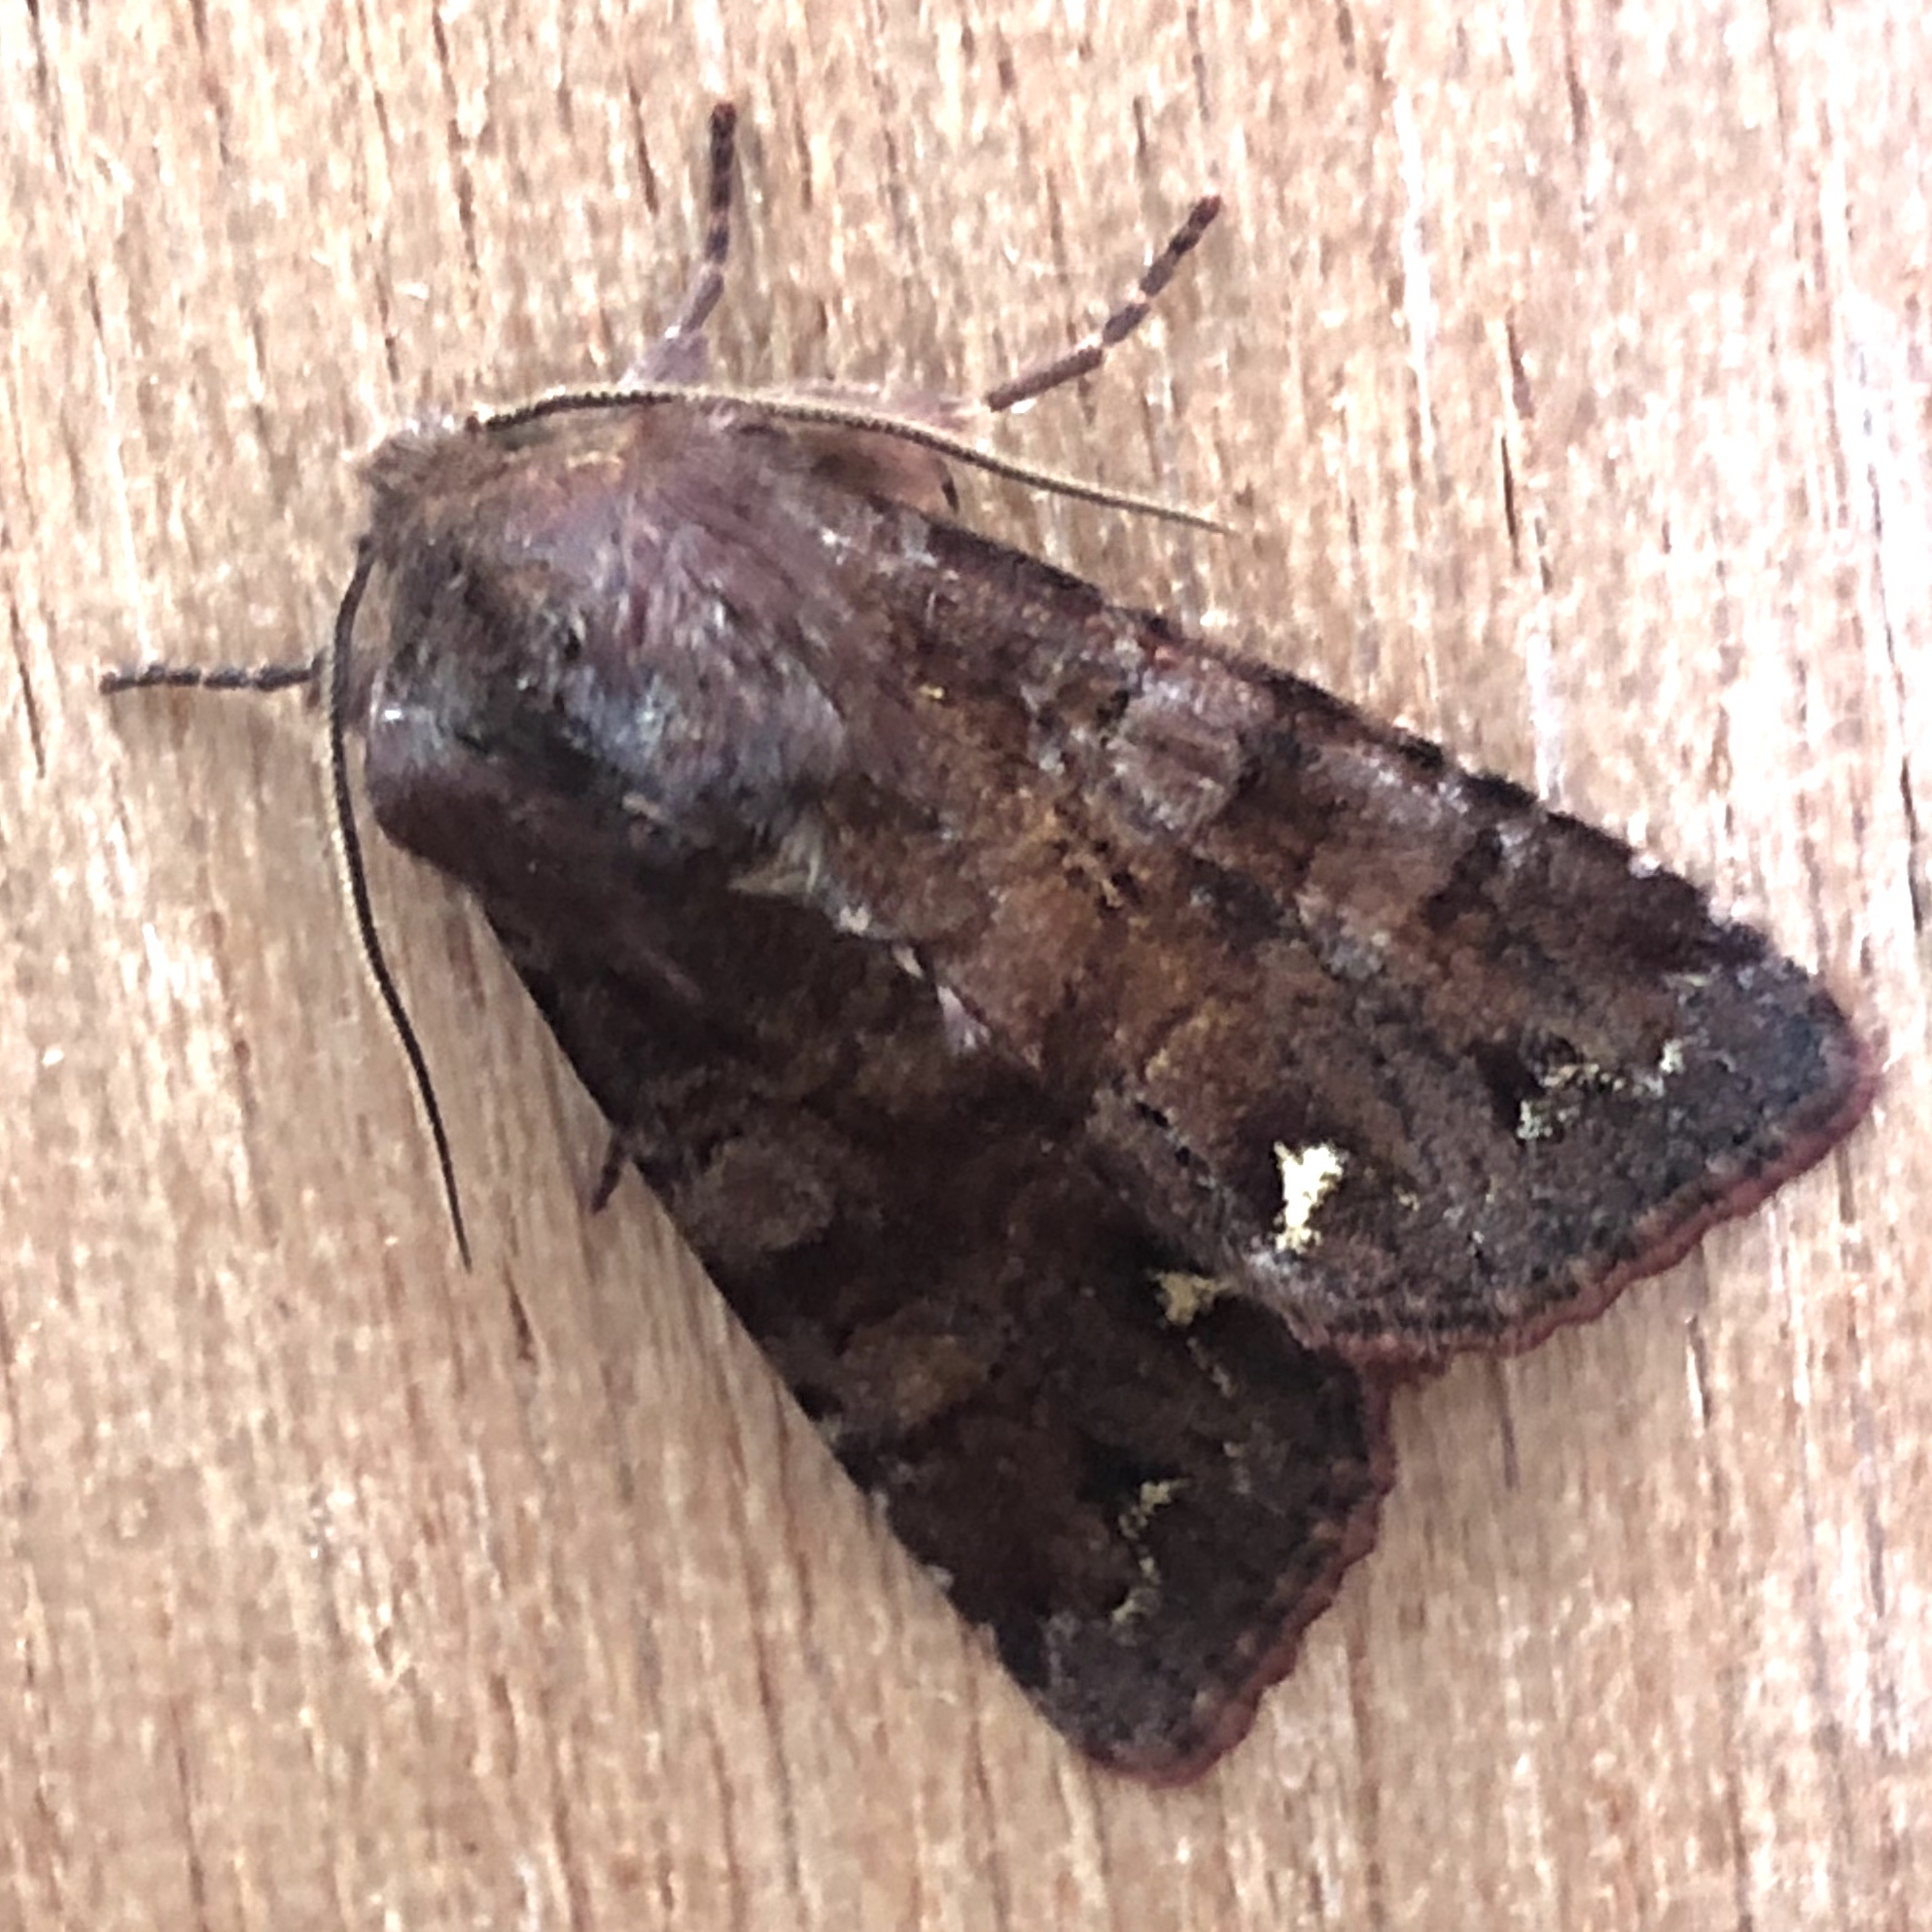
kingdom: Animalia
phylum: Arthropoda
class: Insecta
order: Lepidoptera
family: Noctuidae
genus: Ceramica
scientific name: Ceramica pisi
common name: Broom moth
